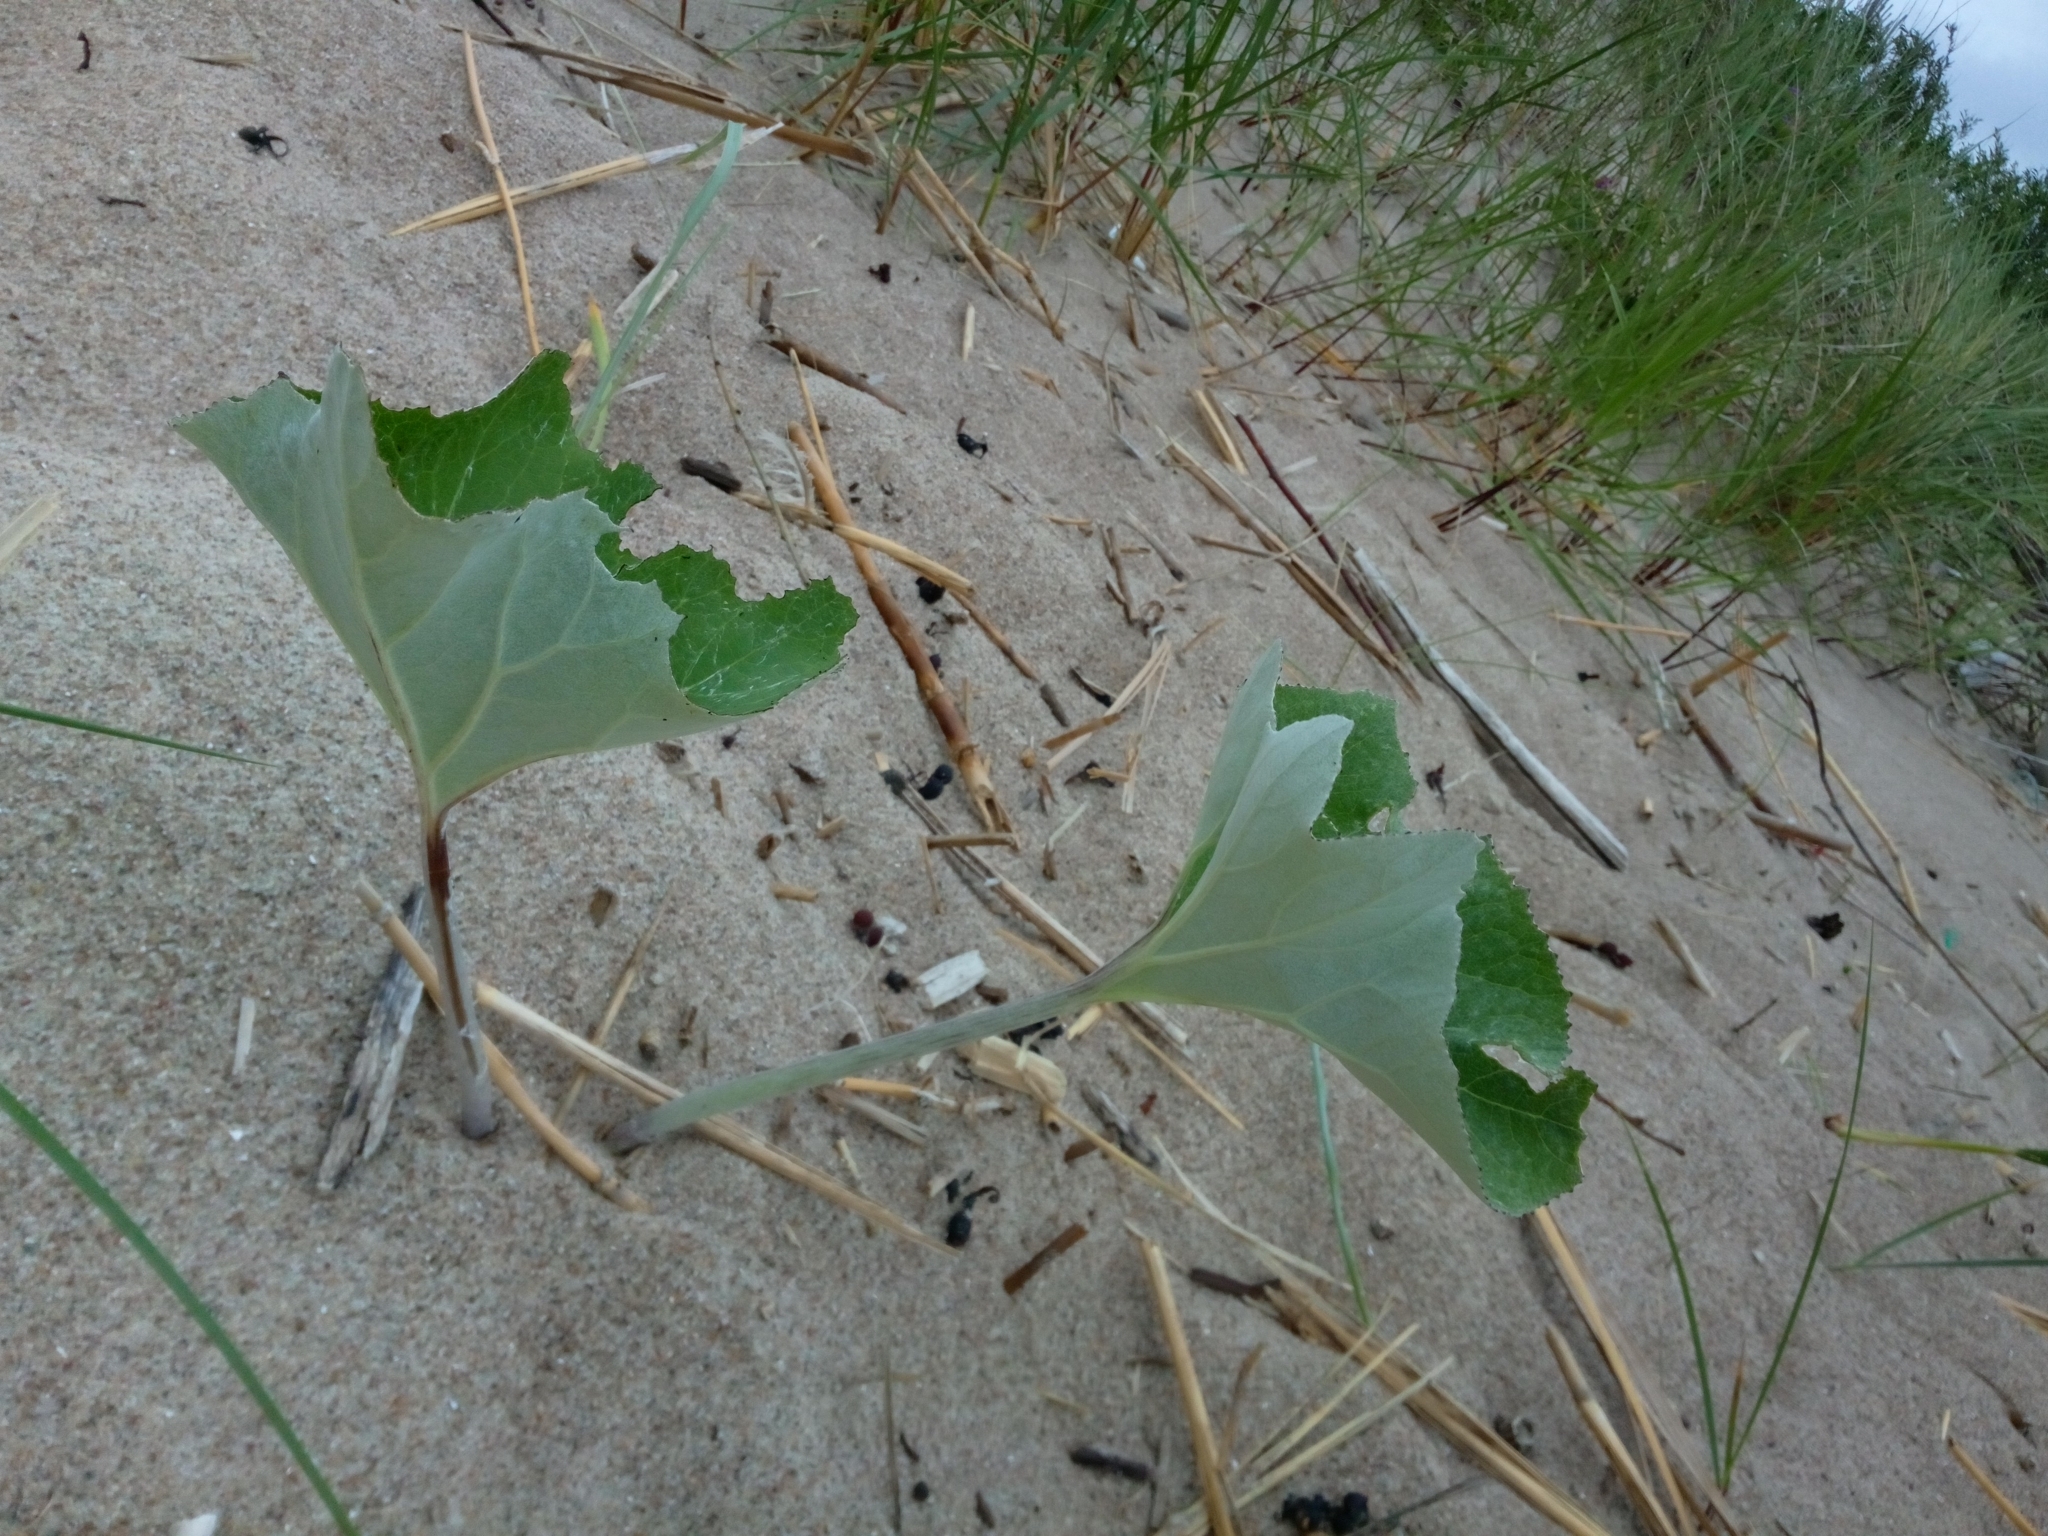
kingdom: Plantae
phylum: Tracheophyta
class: Magnoliopsida
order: Asterales
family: Asteraceae
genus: Petasites
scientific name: Petasites spurius
